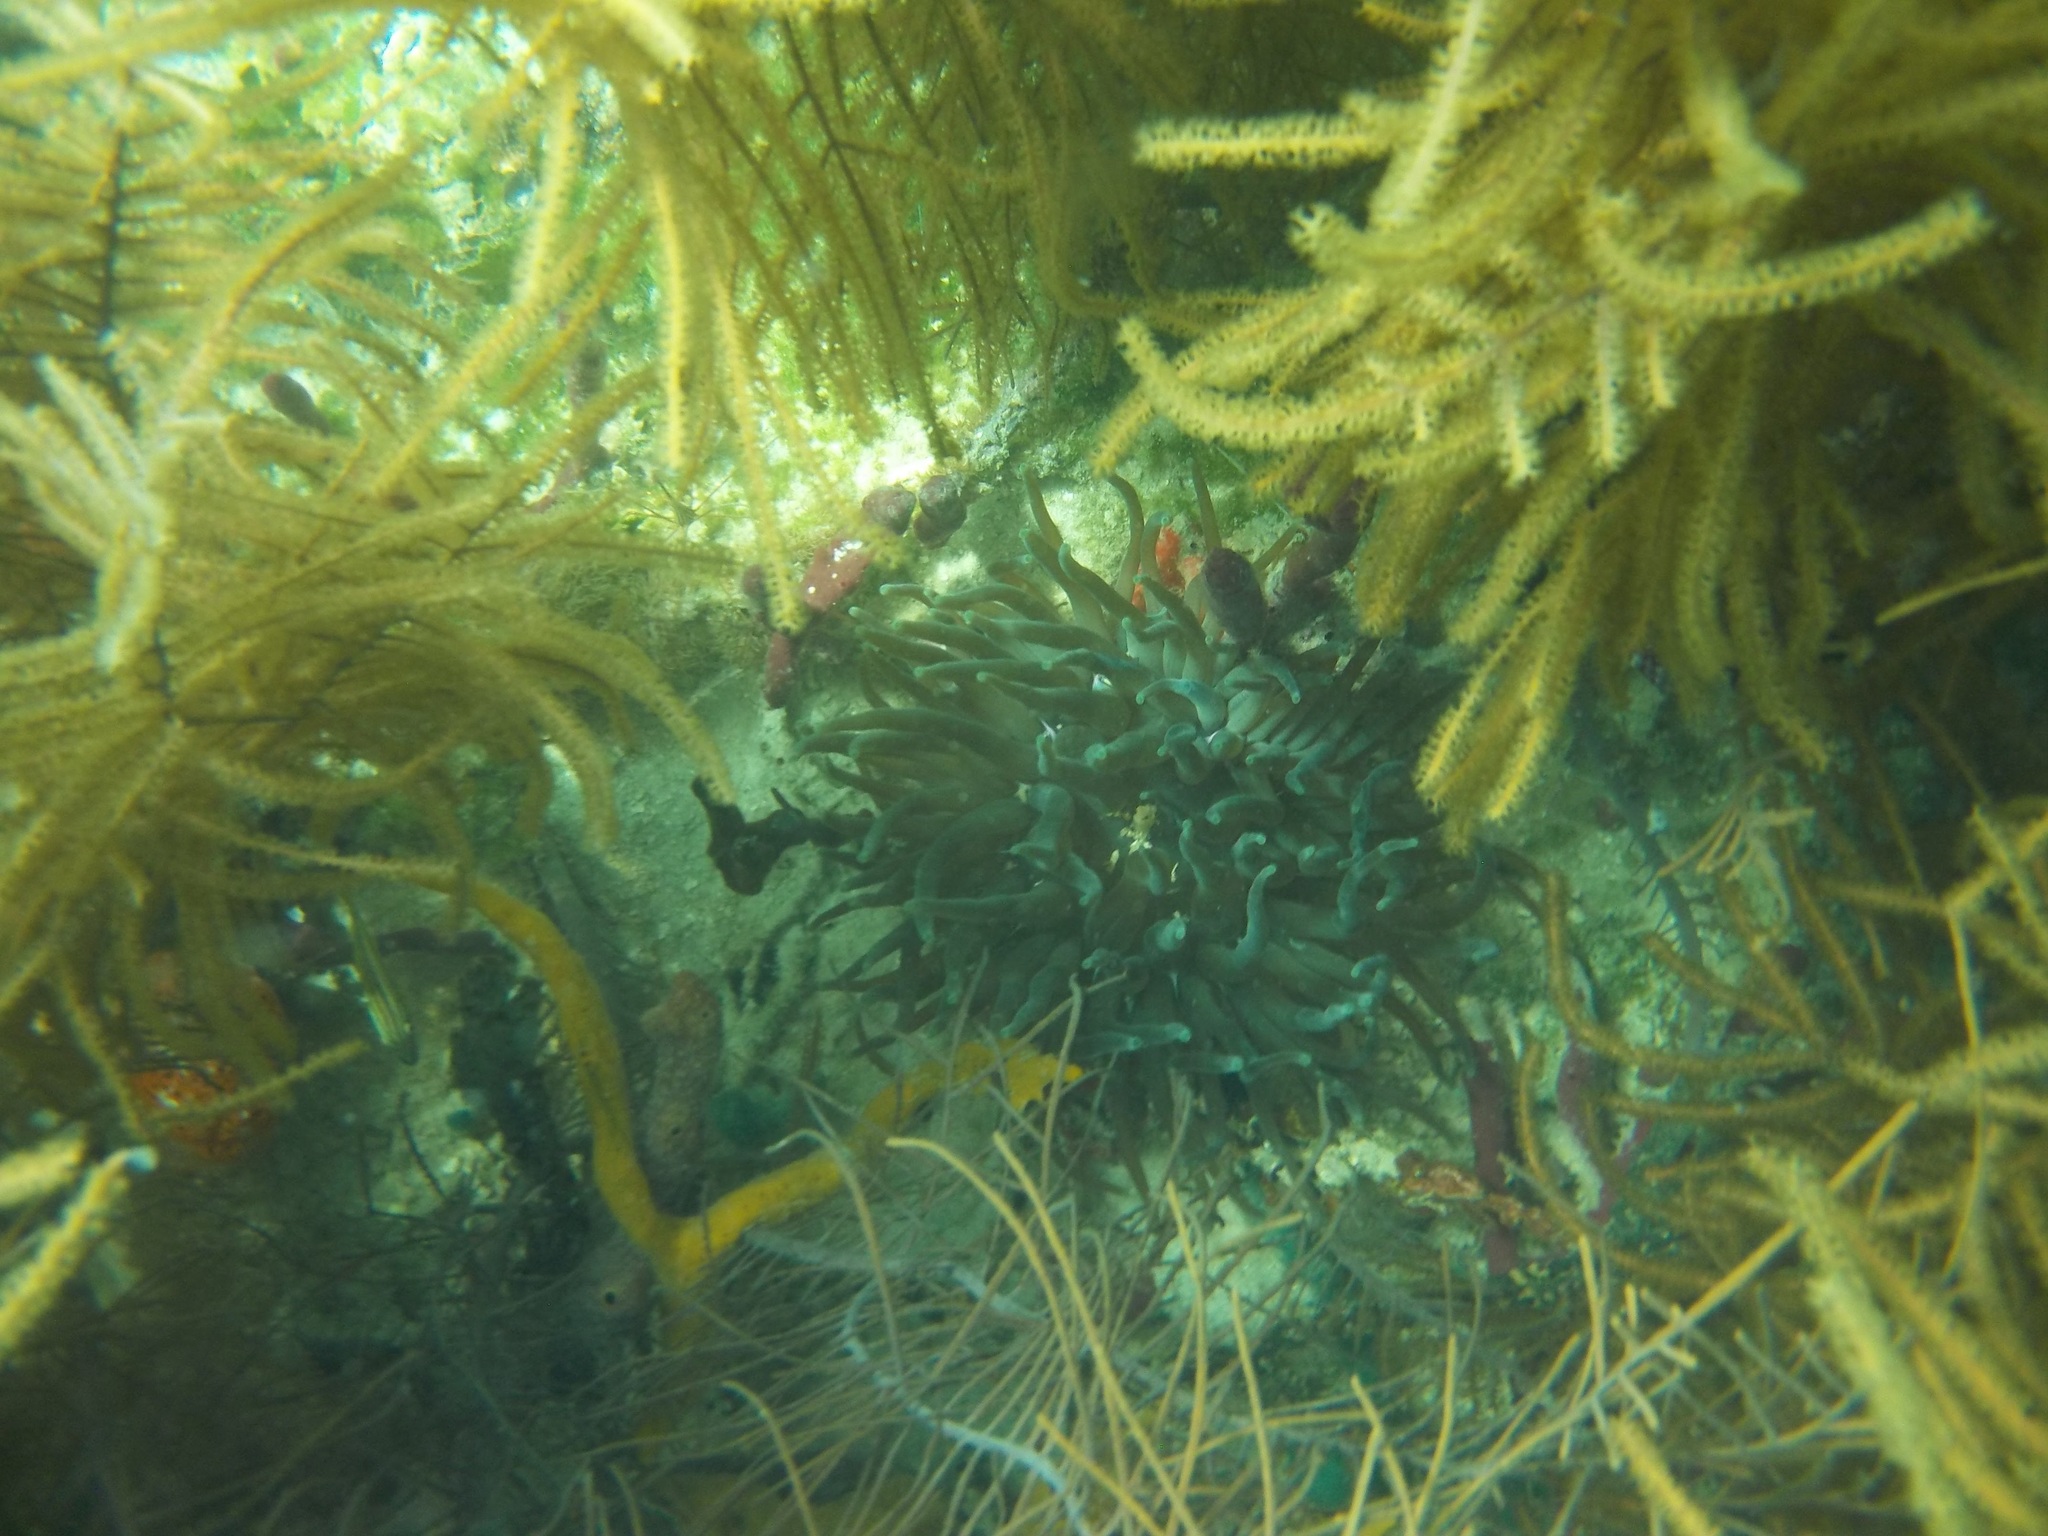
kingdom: Animalia
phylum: Cnidaria
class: Anthozoa
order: Actiniaria
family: Actiniidae
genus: Condylactis
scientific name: Condylactis gigantea
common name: Giant caribbean anemone
